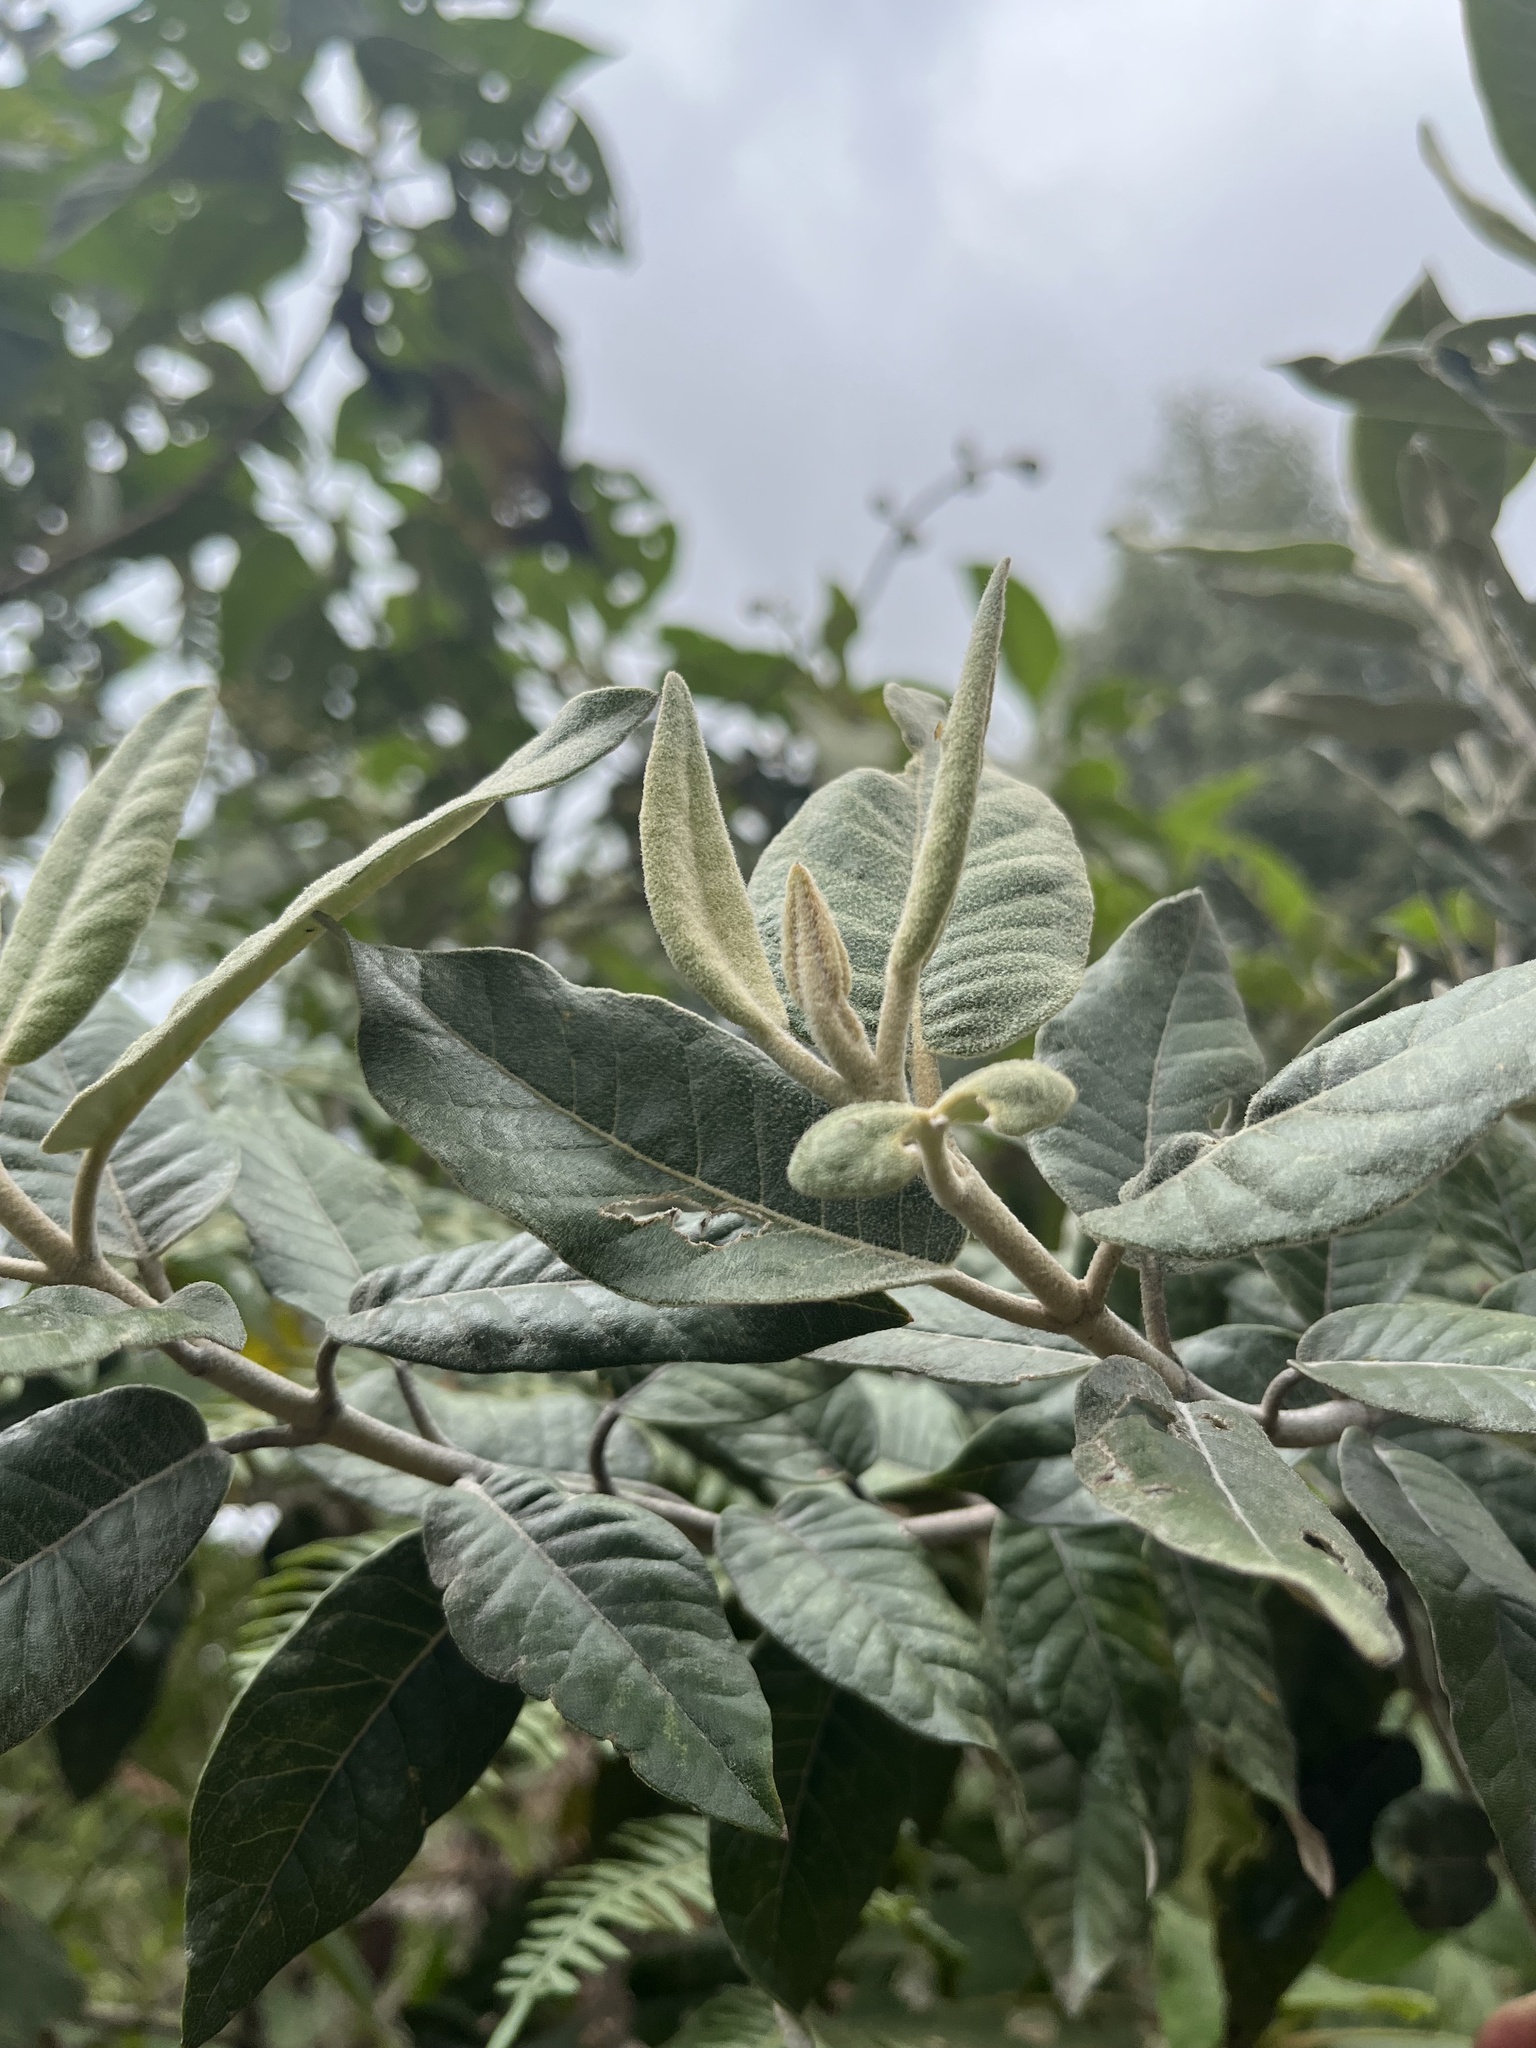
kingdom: Plantae
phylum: Tracheophyta
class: Magnoliopsida
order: Asterales
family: Asteraceae
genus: Ageratina
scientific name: Ageratina asclepiadea
